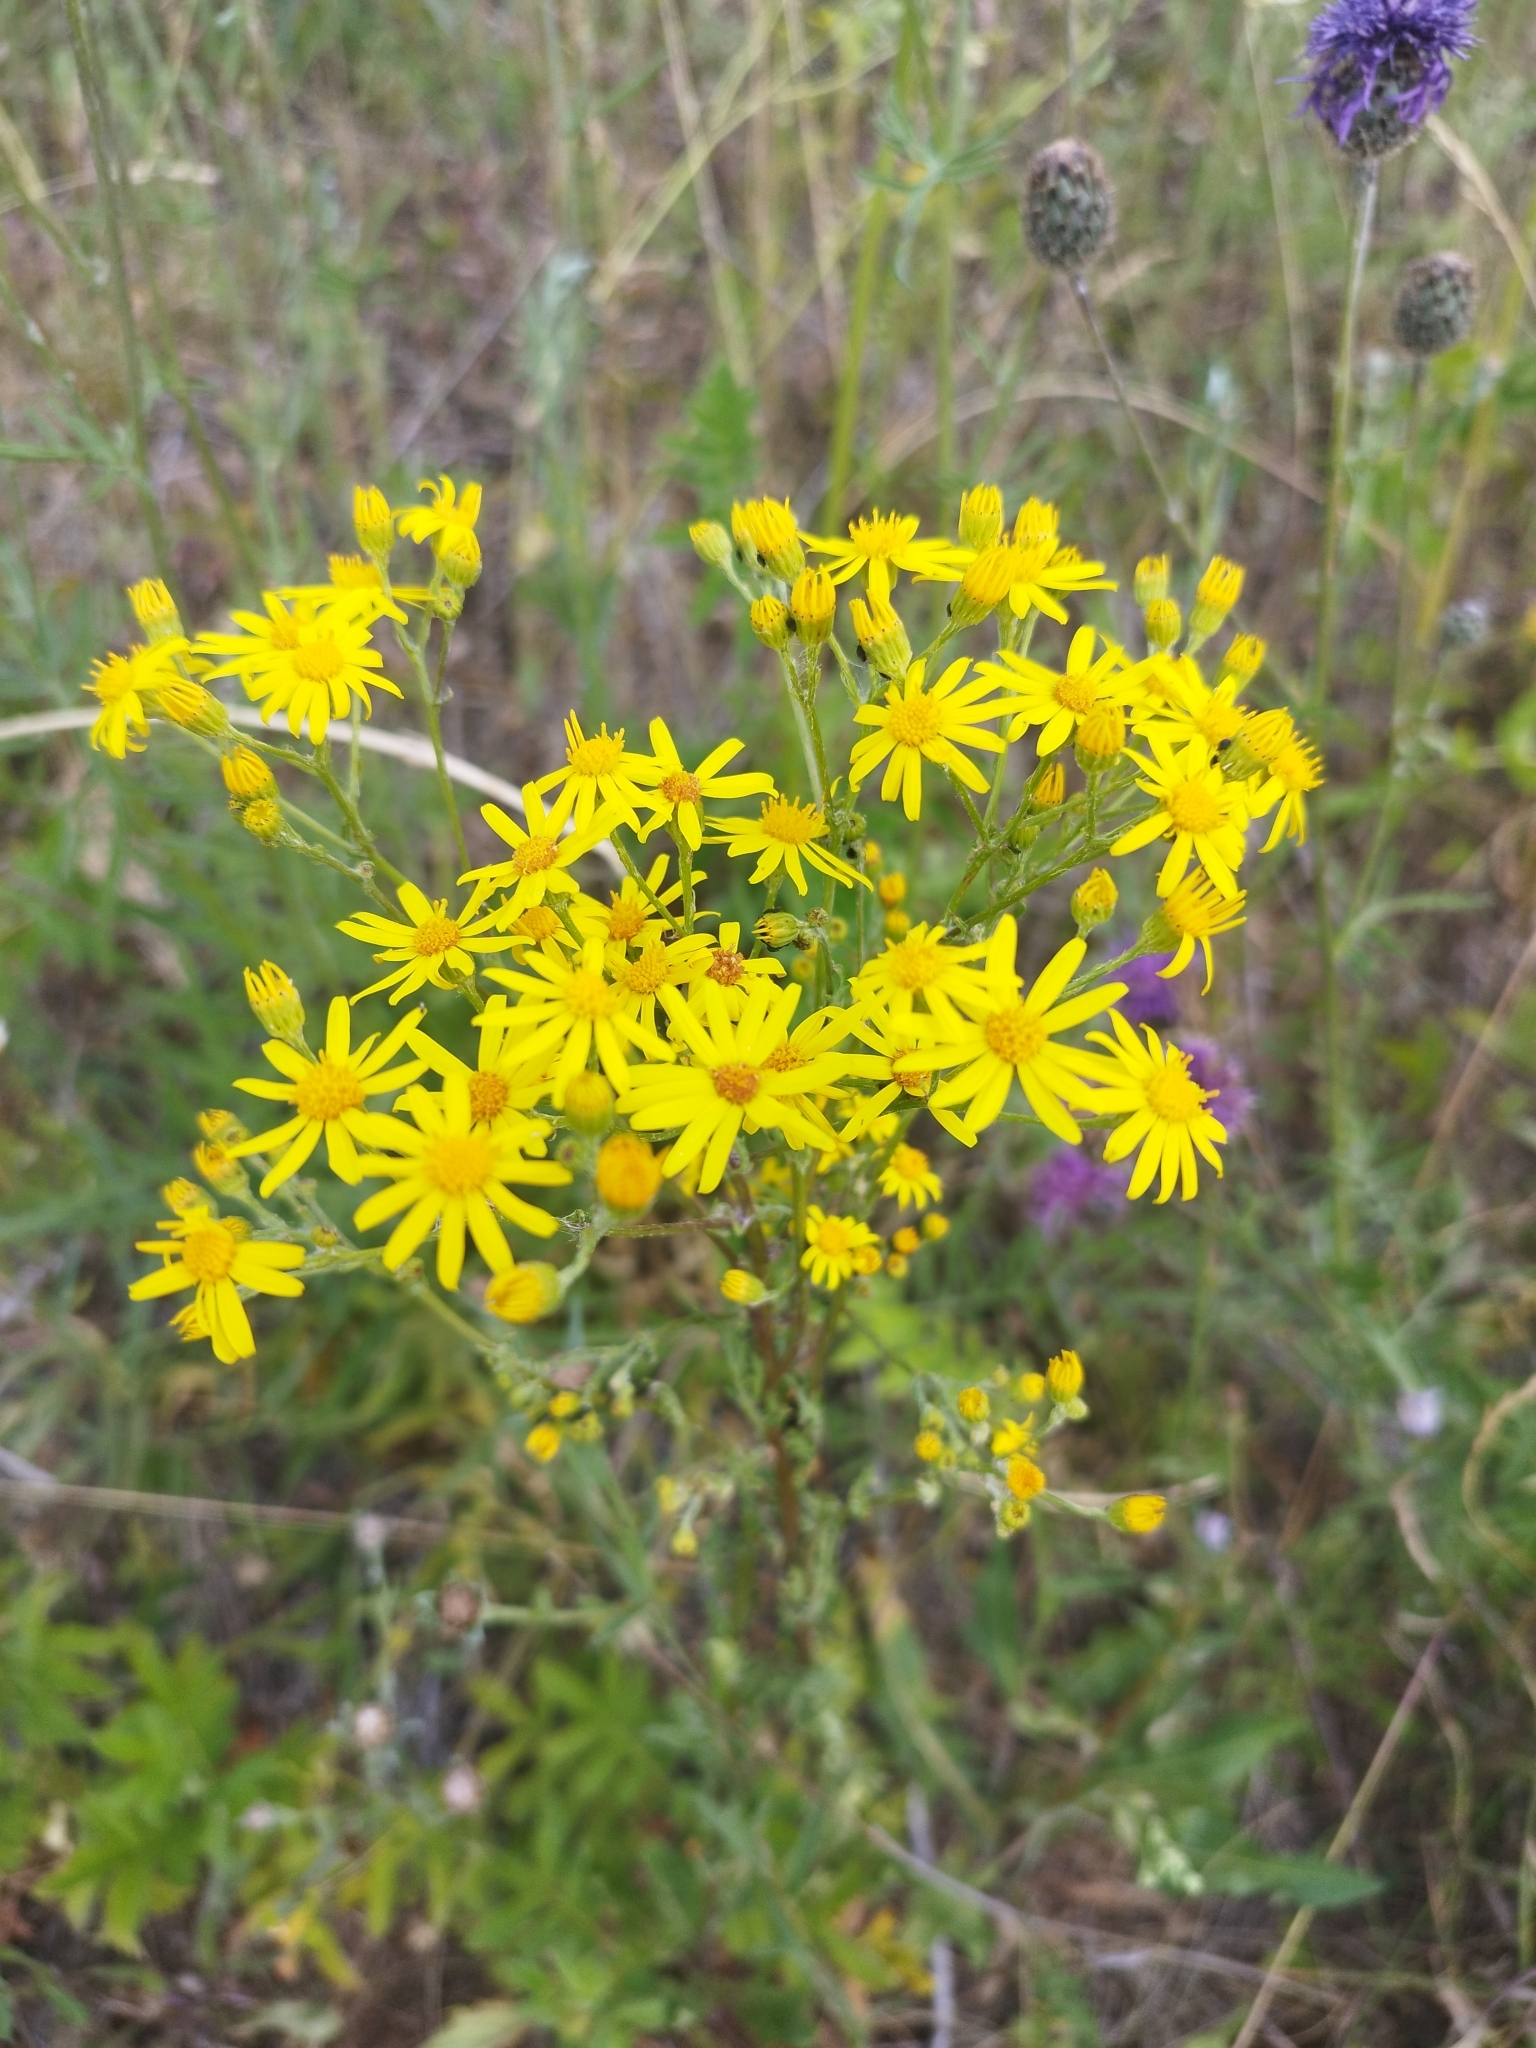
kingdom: Plantae
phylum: Tracheophyta
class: Magnoliopsida
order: Asterales
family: Asteraceae
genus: Jacobaea
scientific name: Jacobaea vulgaris
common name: Stinking willie
